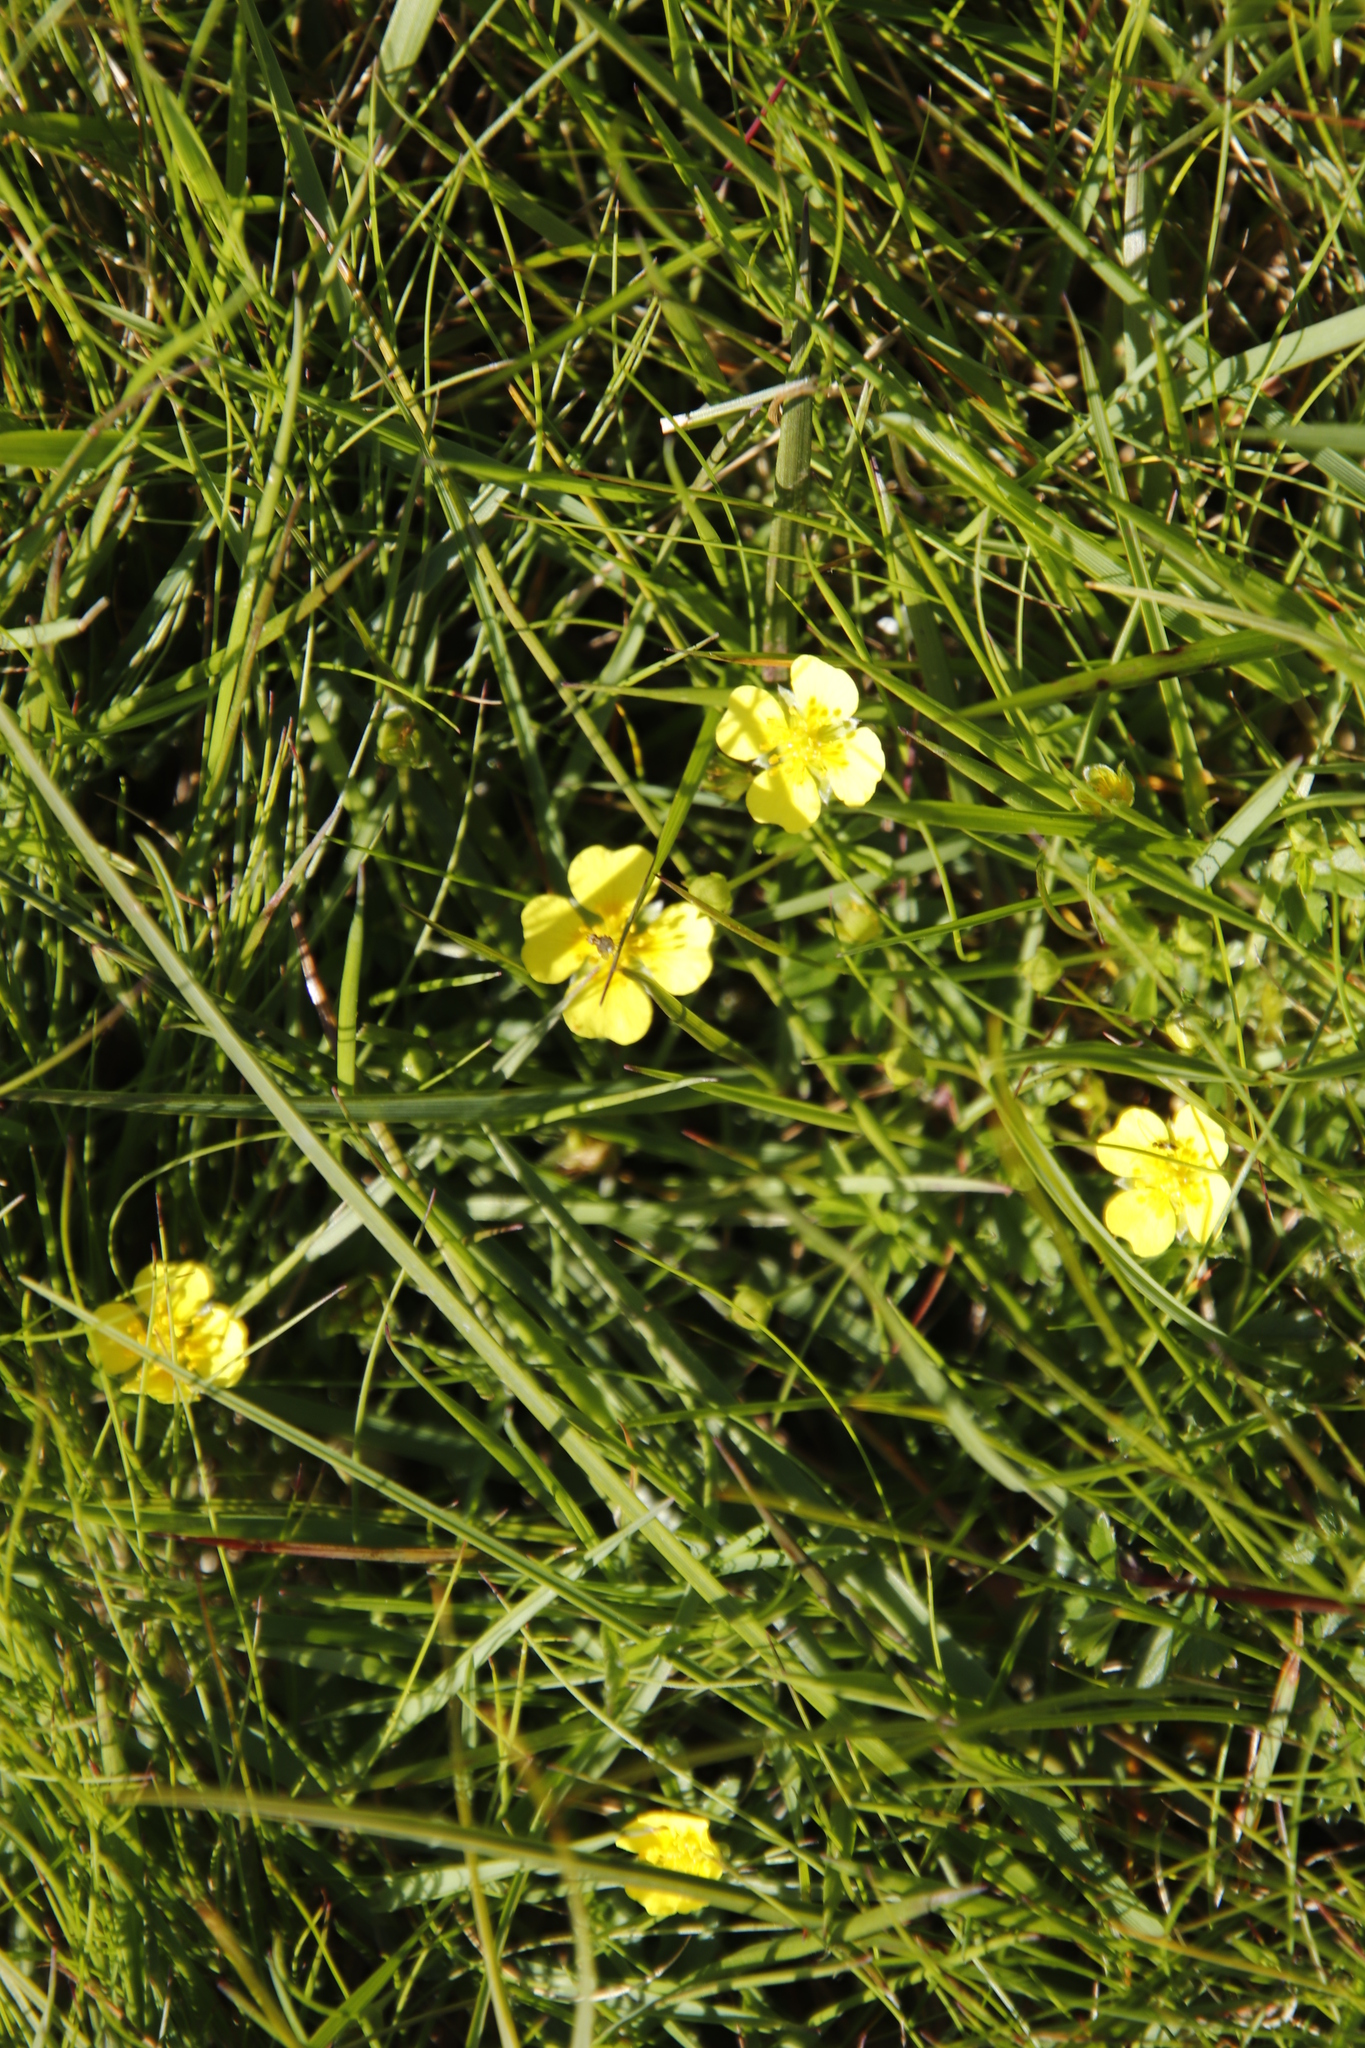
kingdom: Plantae
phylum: Tracheophyta
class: Magnoliopsida
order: Rosales
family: Rosaceae
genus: Potentilla
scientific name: Potentilla erecta
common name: Tormentil
